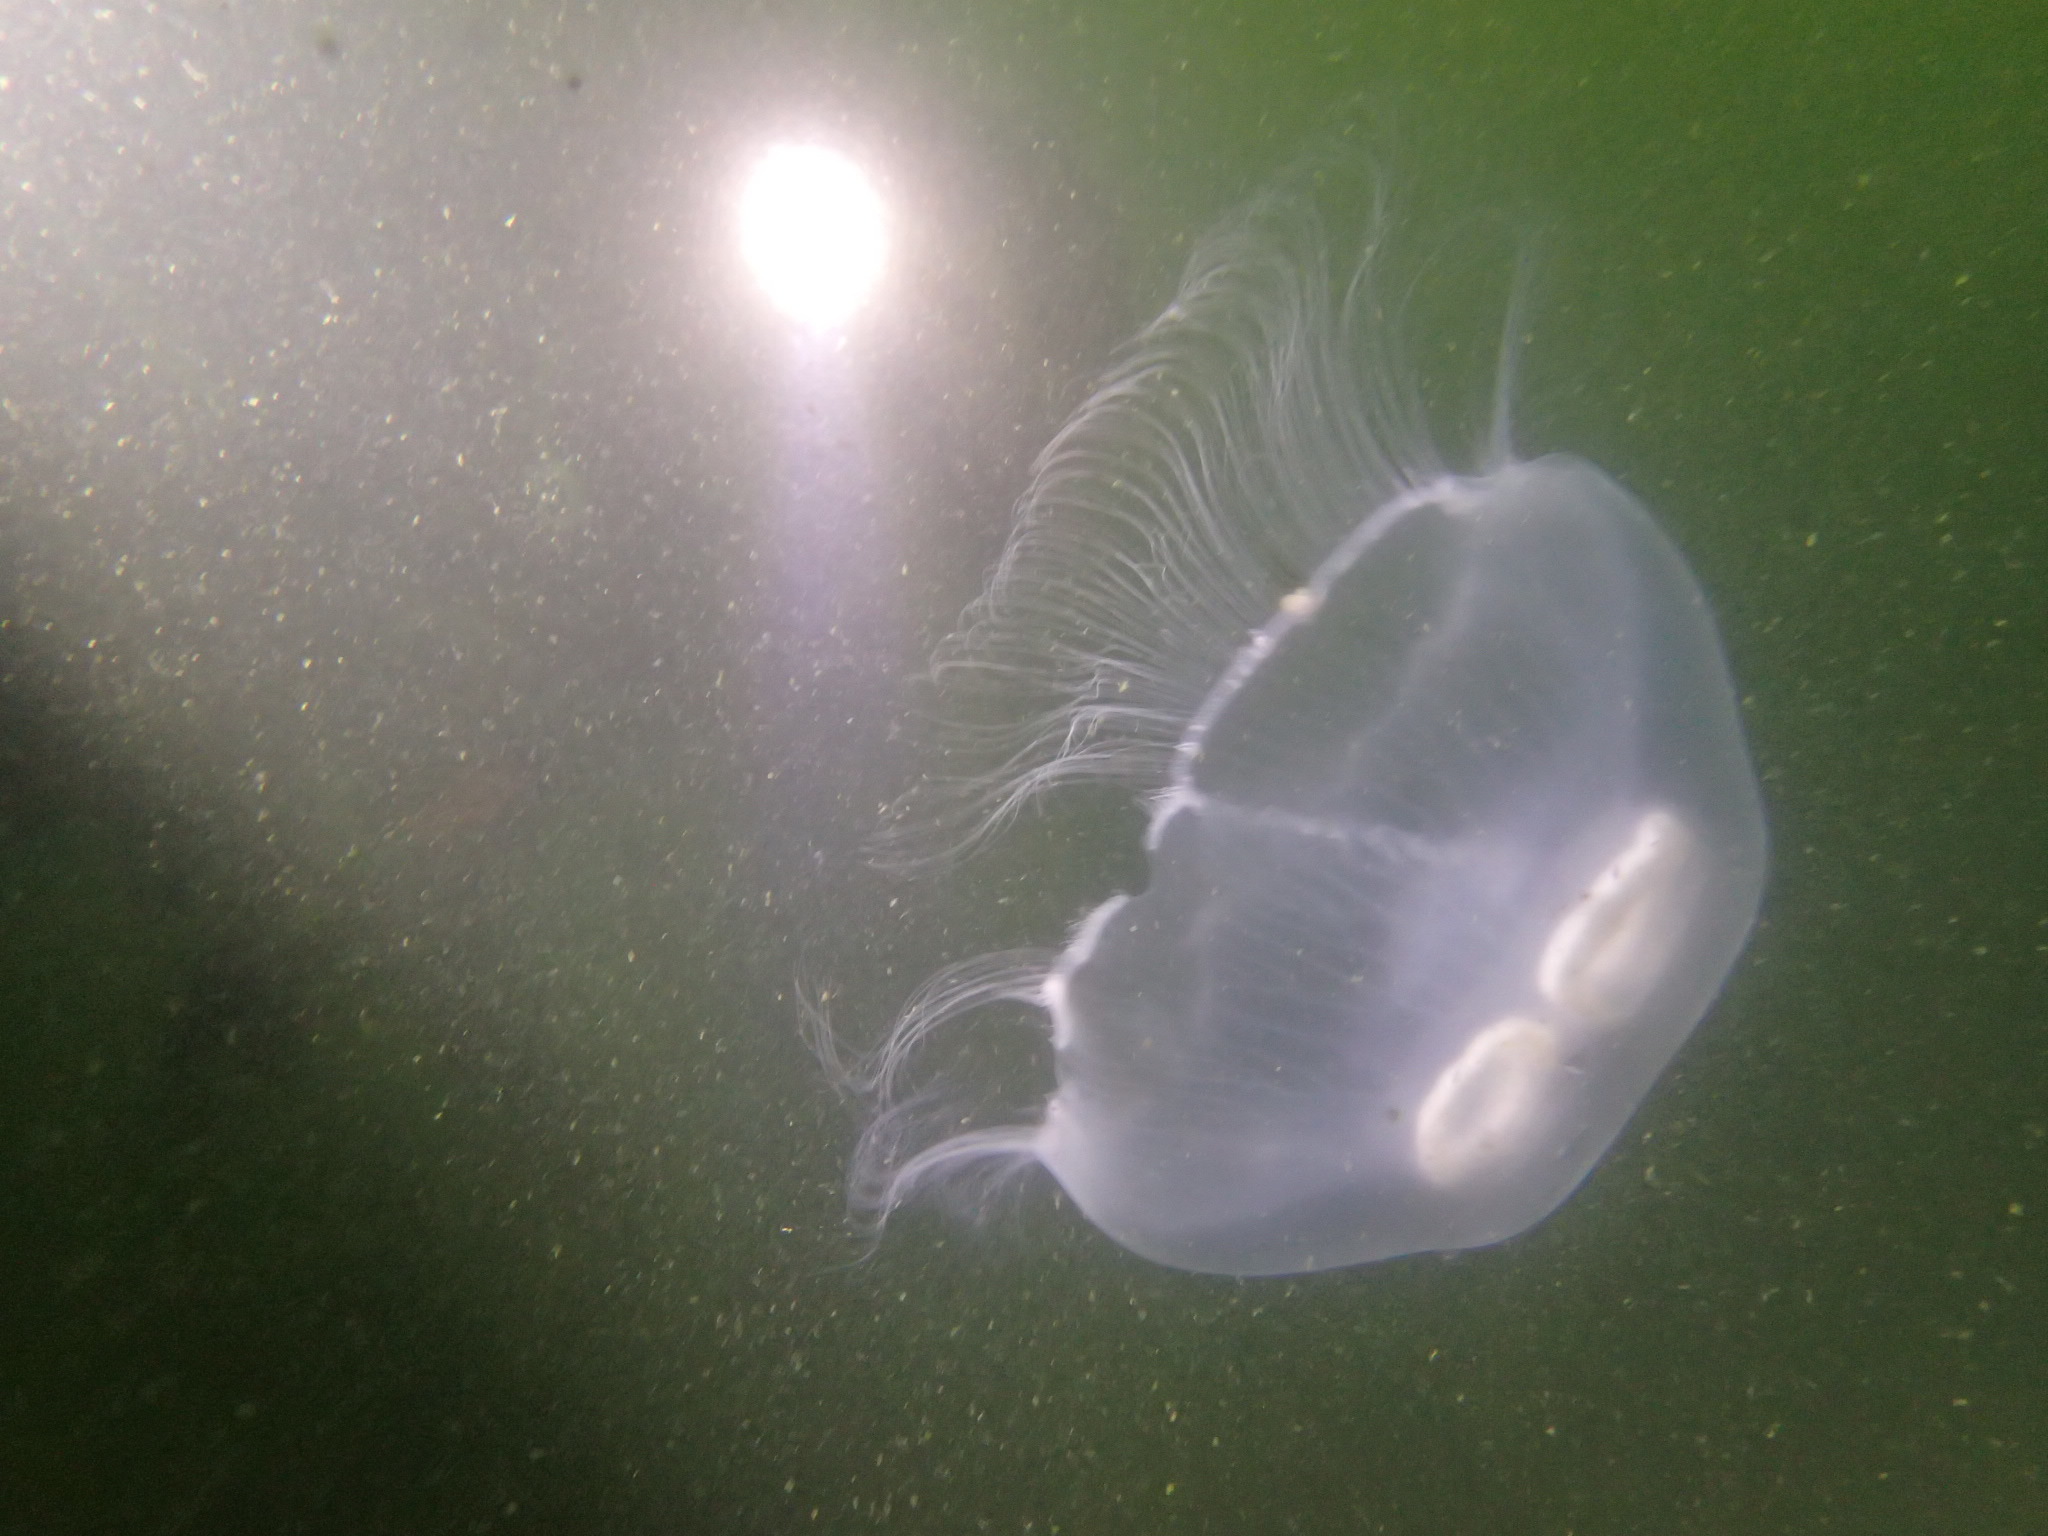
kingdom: Animalia
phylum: Cnidaria
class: Scyphozoa
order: Semaeostomeae
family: Ulmaridae
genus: Aurelia
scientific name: Aurelia aurita
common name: Moon jellyfish
